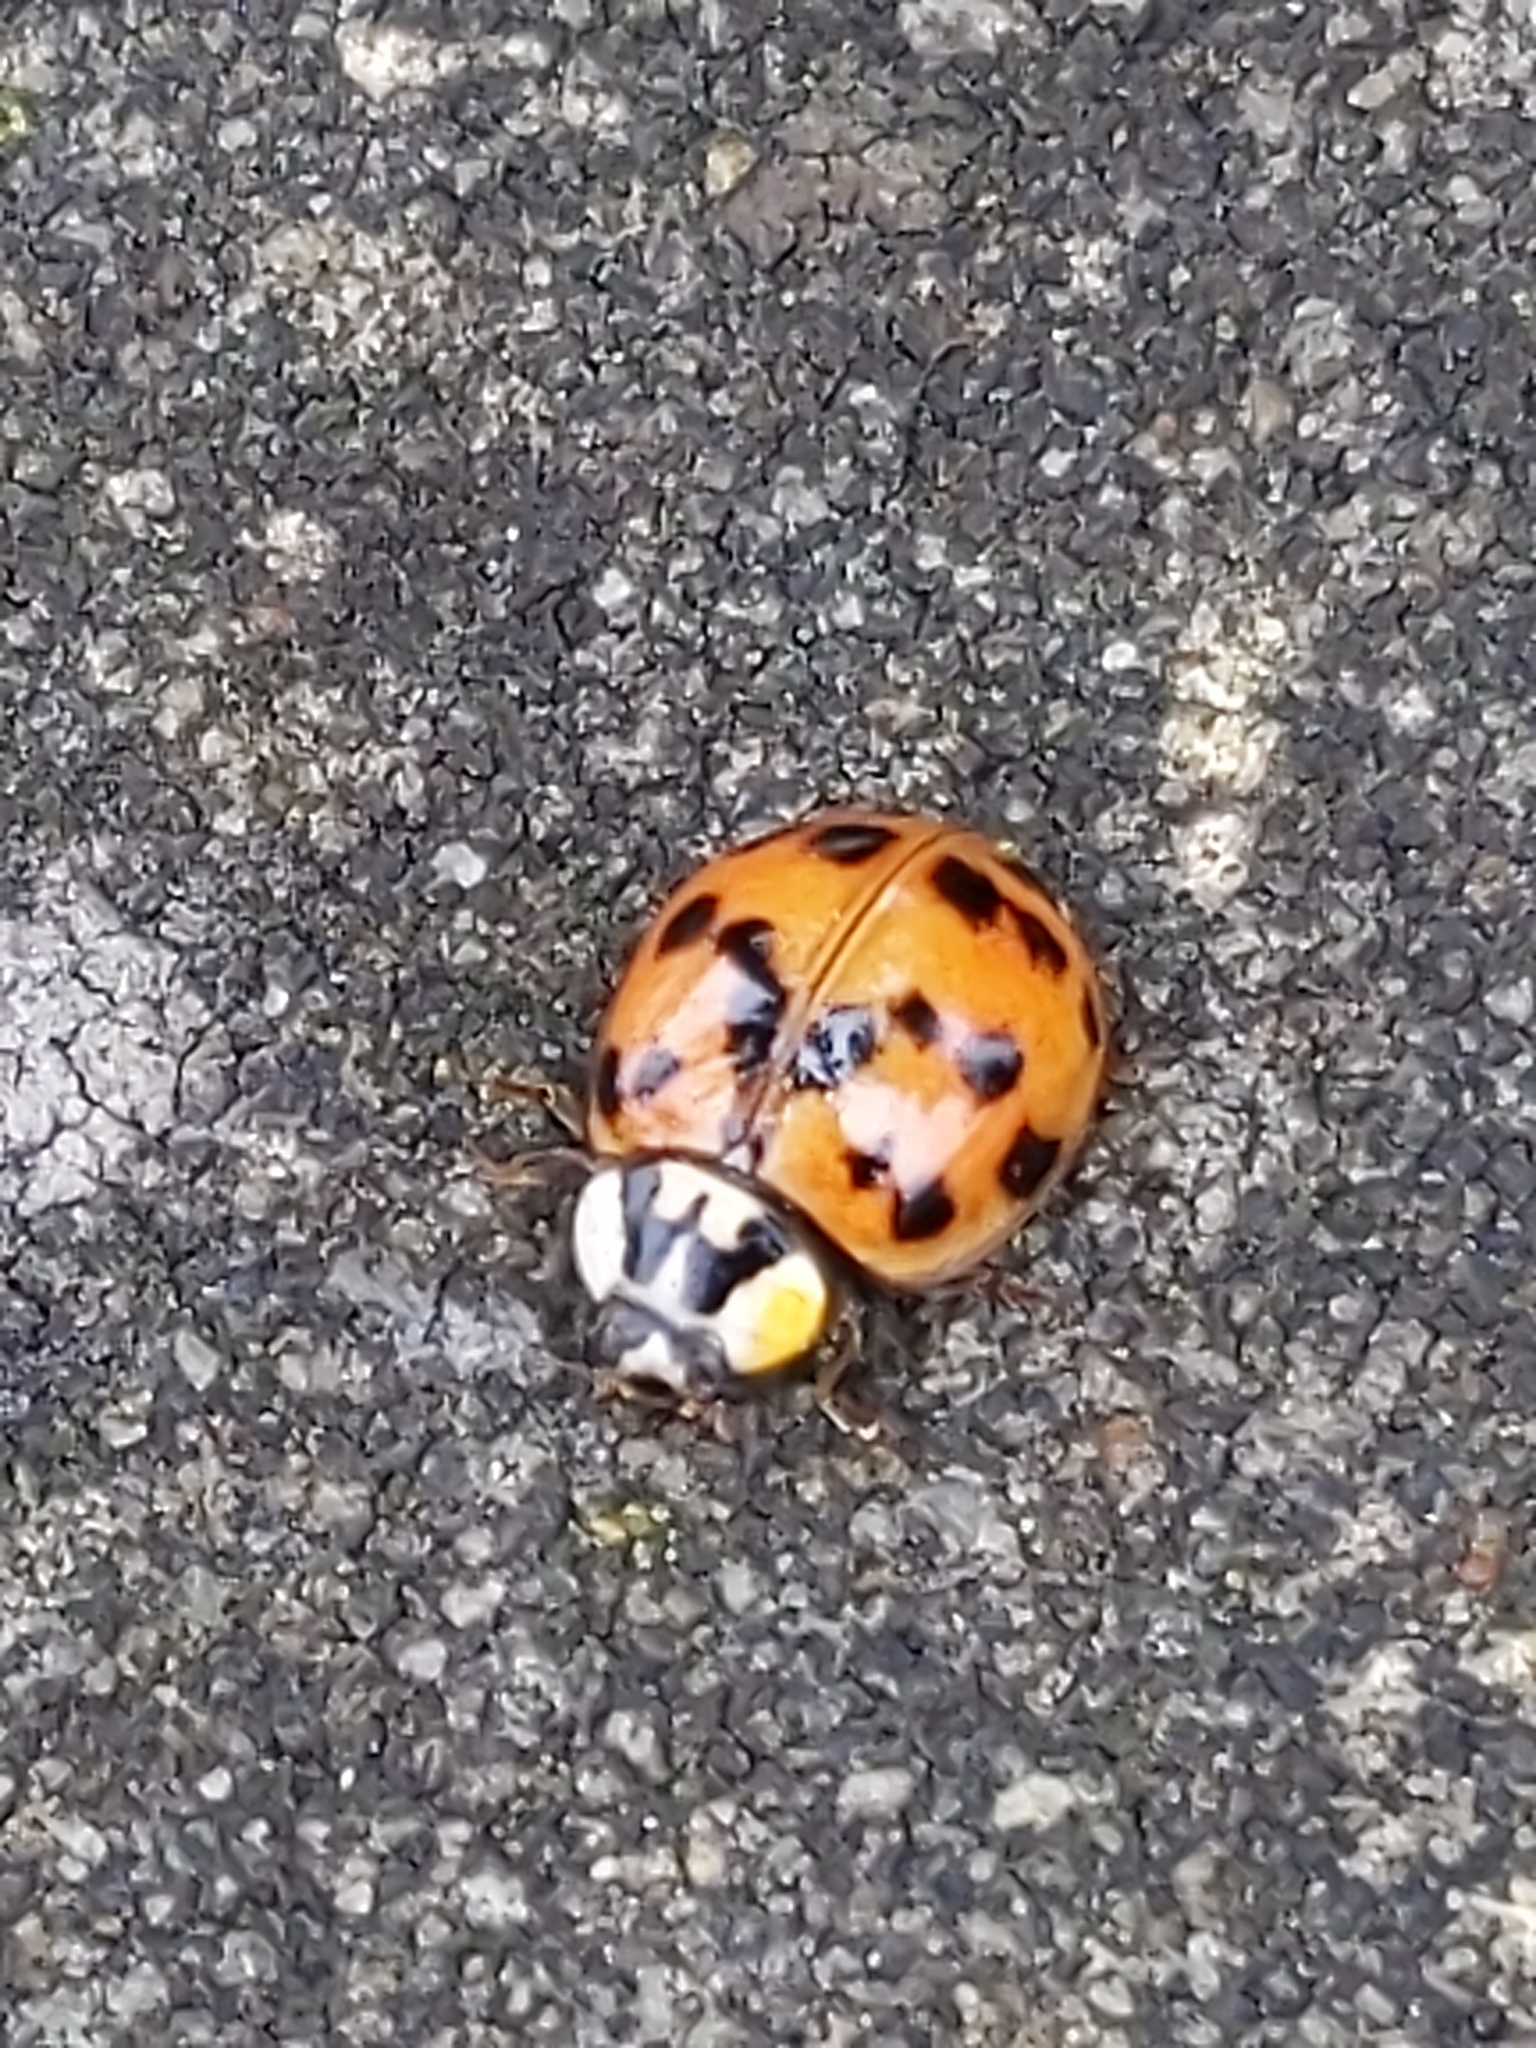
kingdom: Animalia
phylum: Arthropoda
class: Insecta
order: Coleoptera
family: Coccinellidae
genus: Harmonia
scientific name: Harmonia axyridis
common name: Harlequin ladybird
